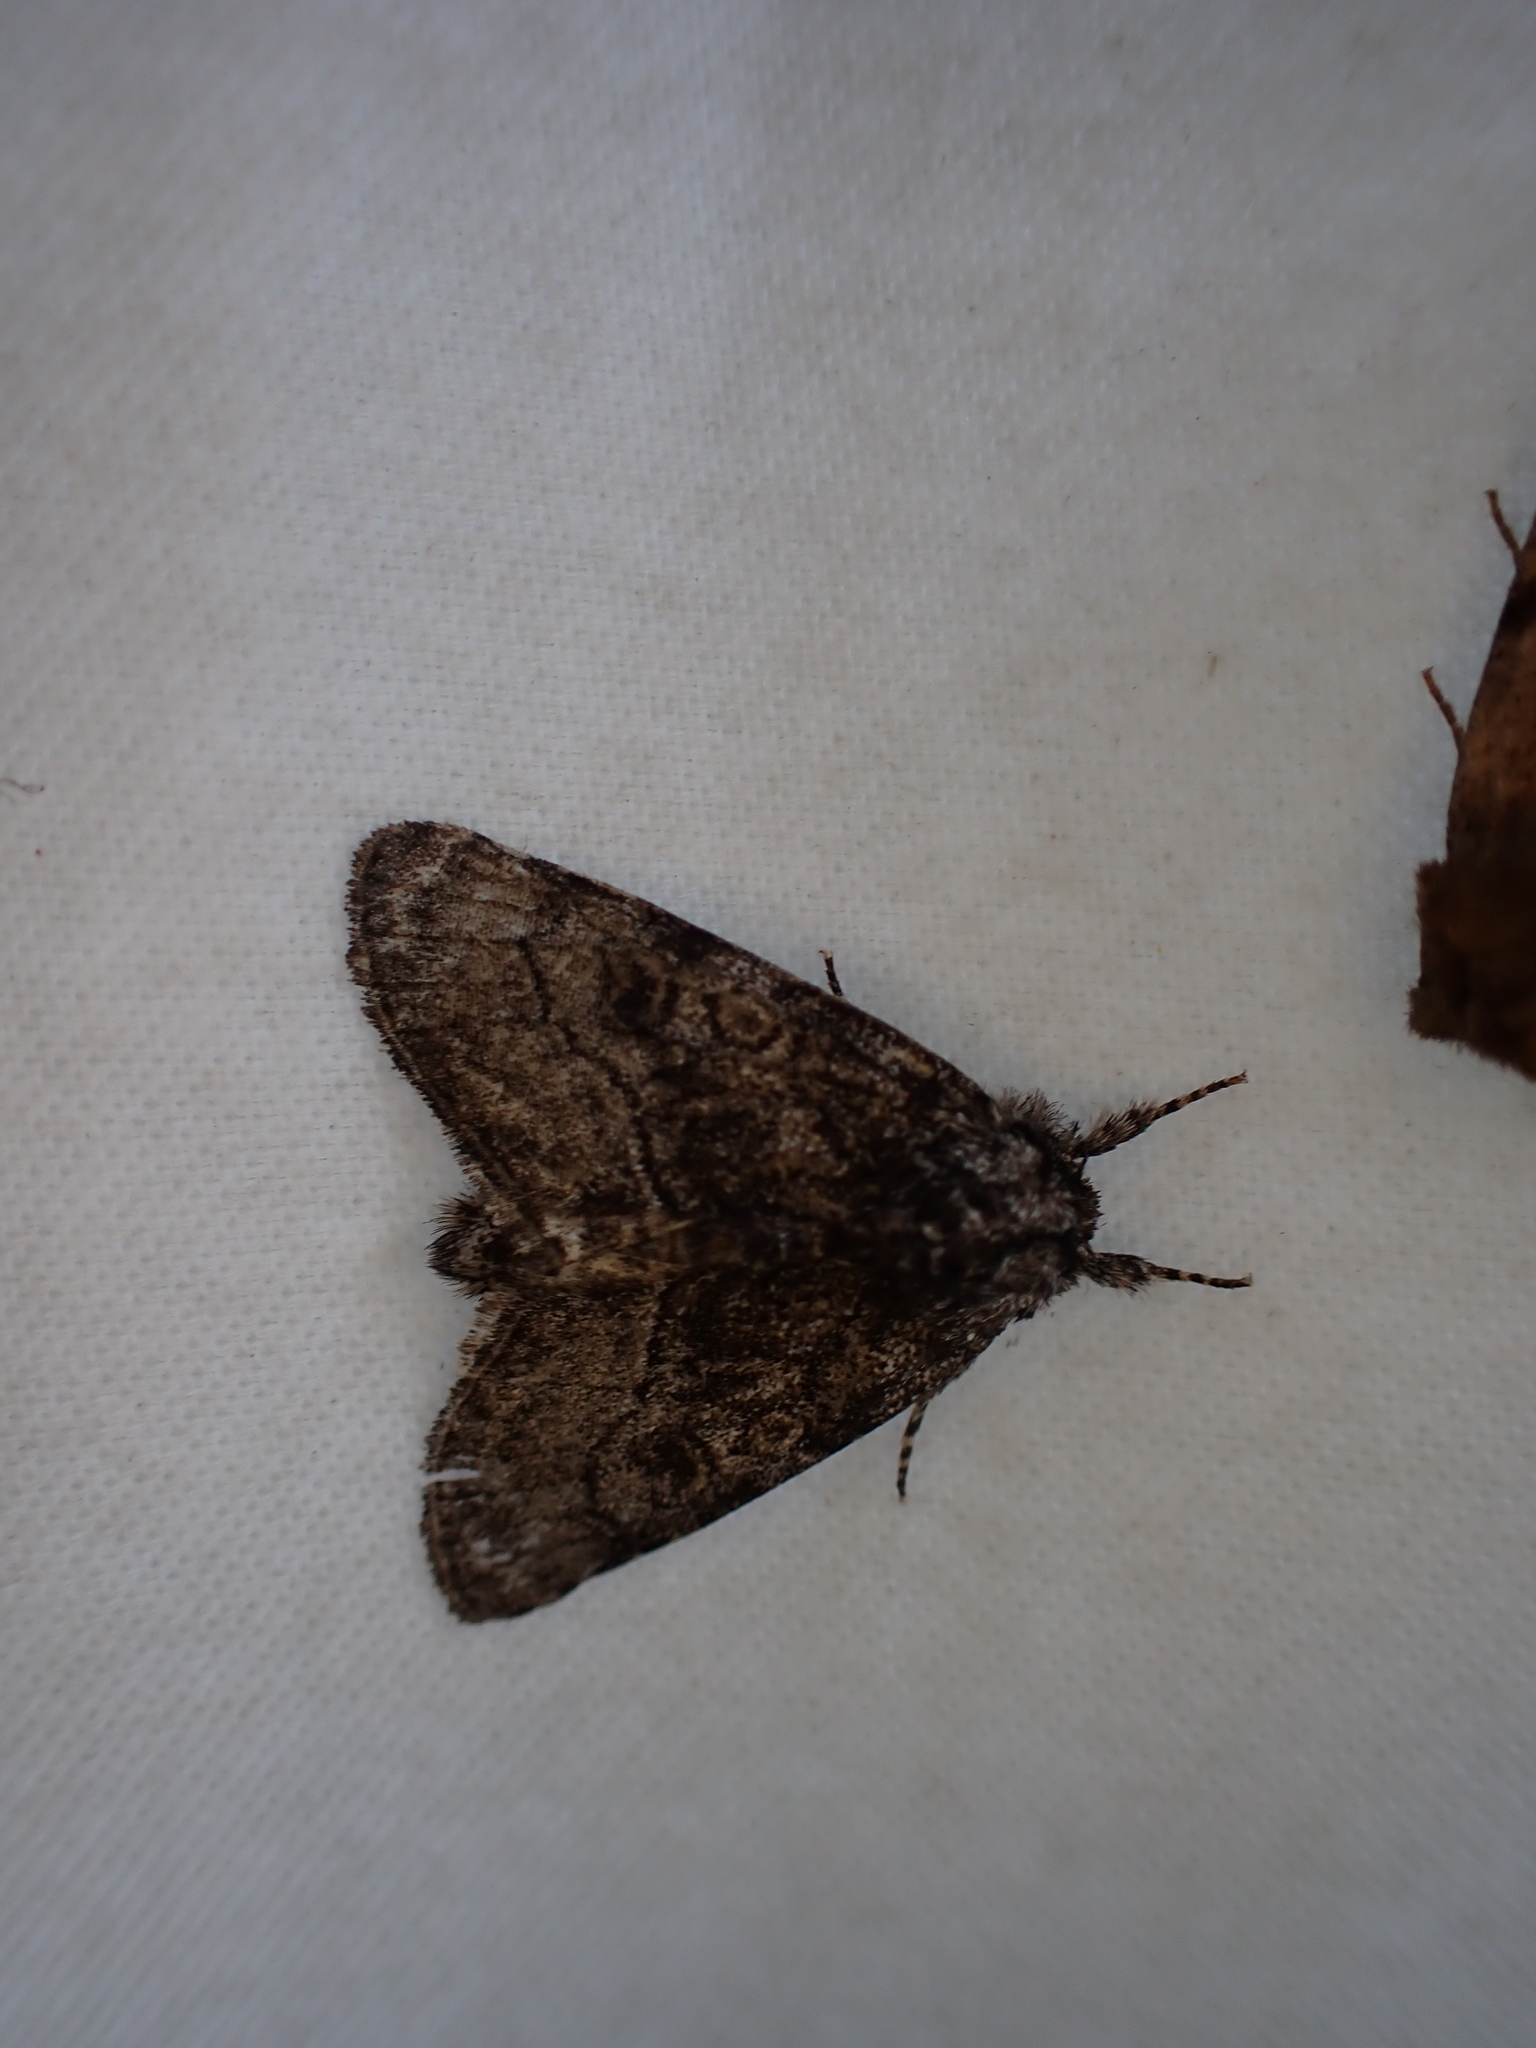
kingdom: Animalia
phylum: Arthropoda
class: Insecta
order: Lepidoptera
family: Noctuidae
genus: Raphia
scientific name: Raphia frater
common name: Brother
